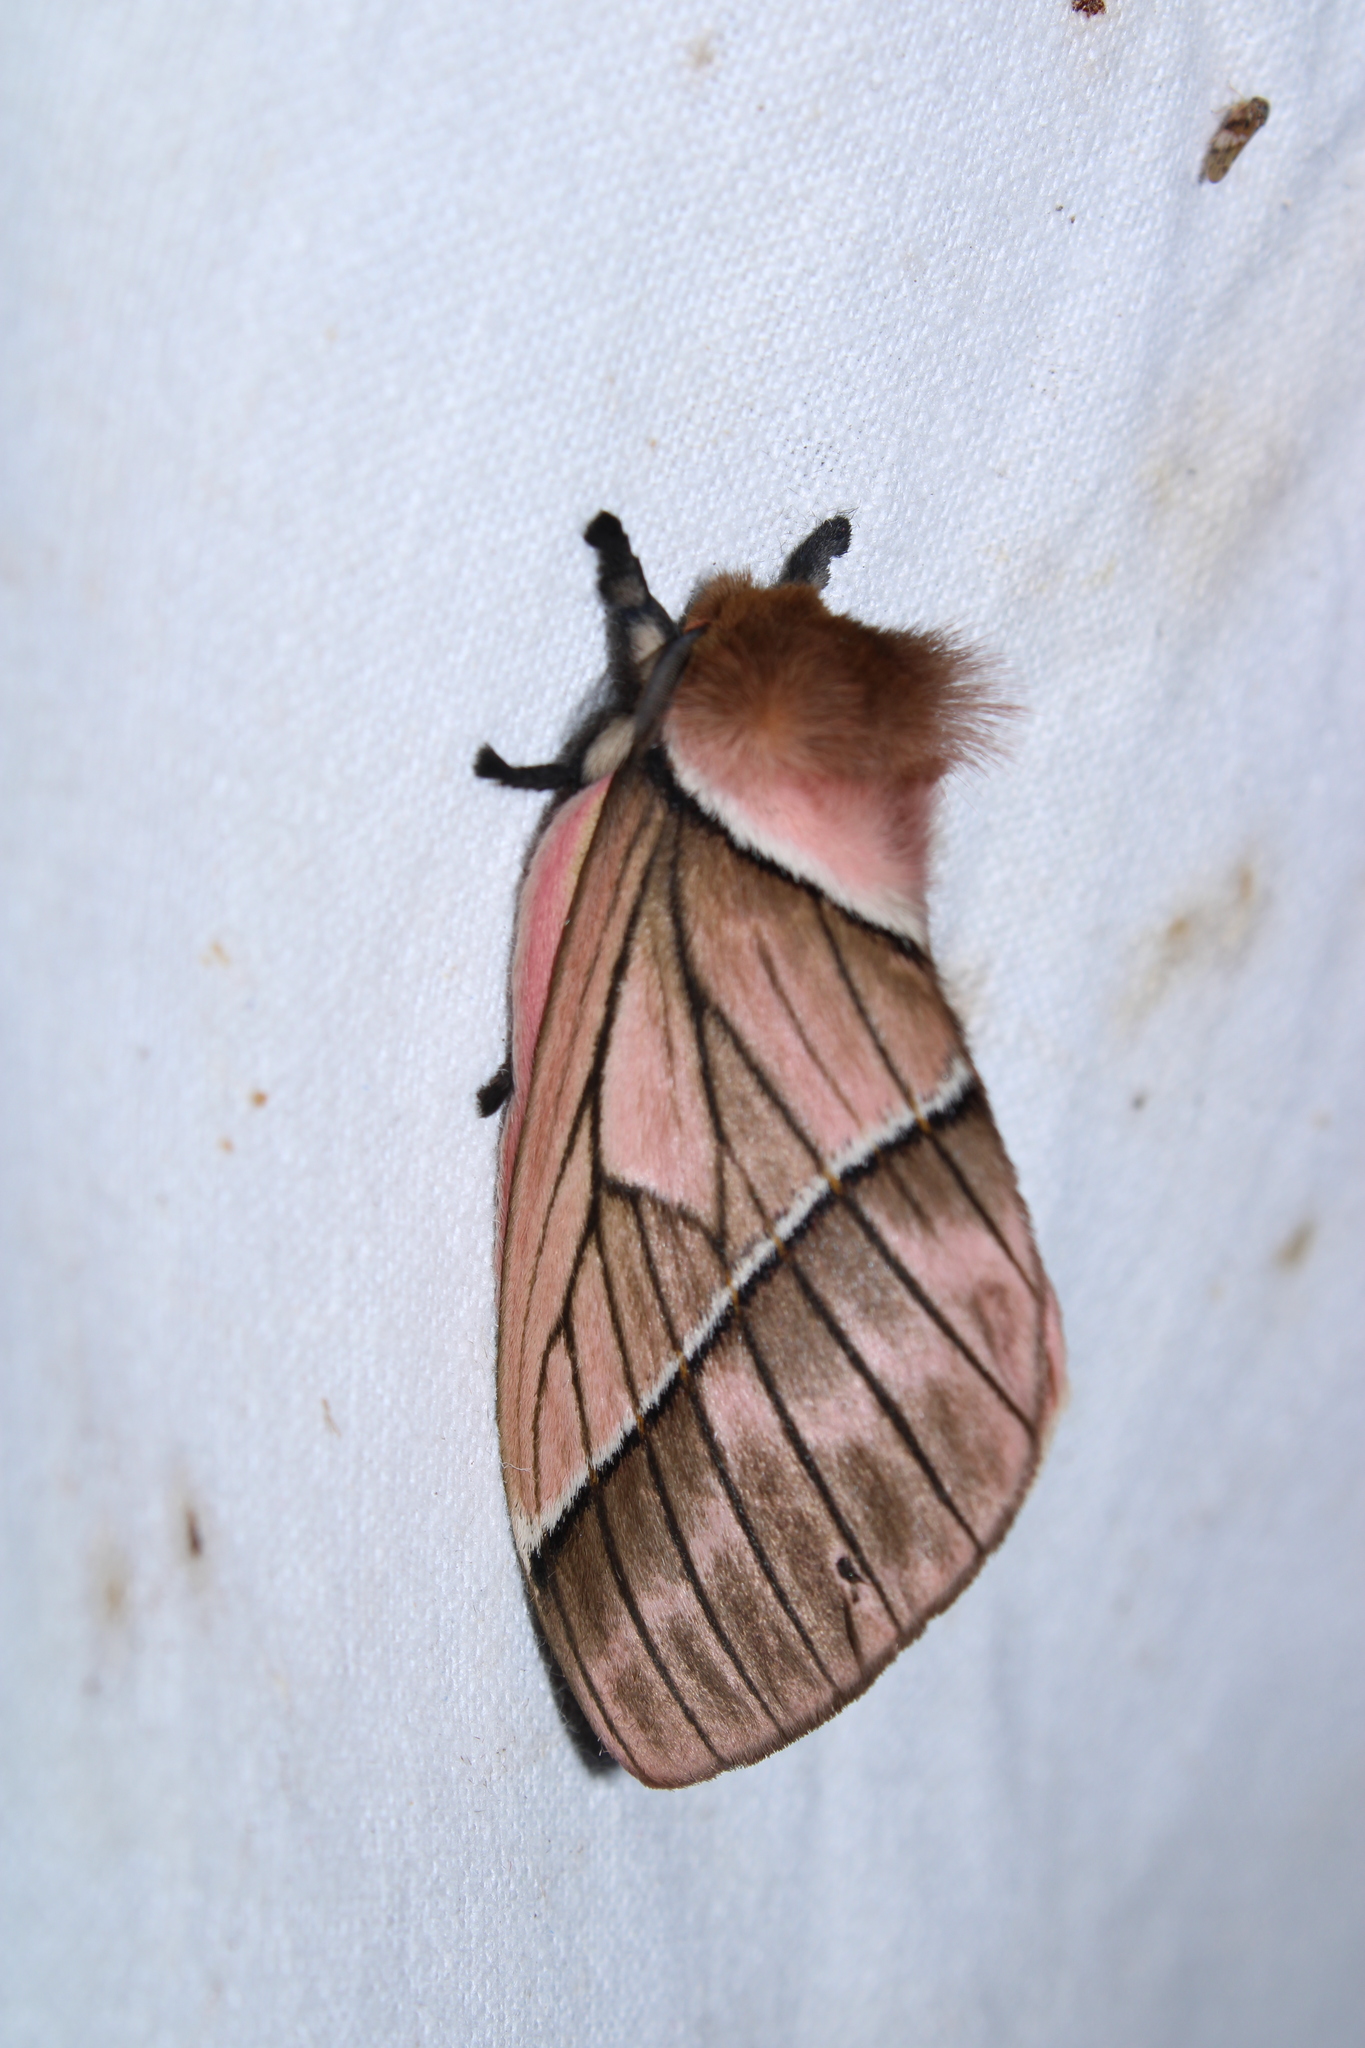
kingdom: Animalia
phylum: Arthropoda
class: Insecta
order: Lepidoptera
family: Saturniidae
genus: Pseudodirphia
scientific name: Pseudodirphia regia
